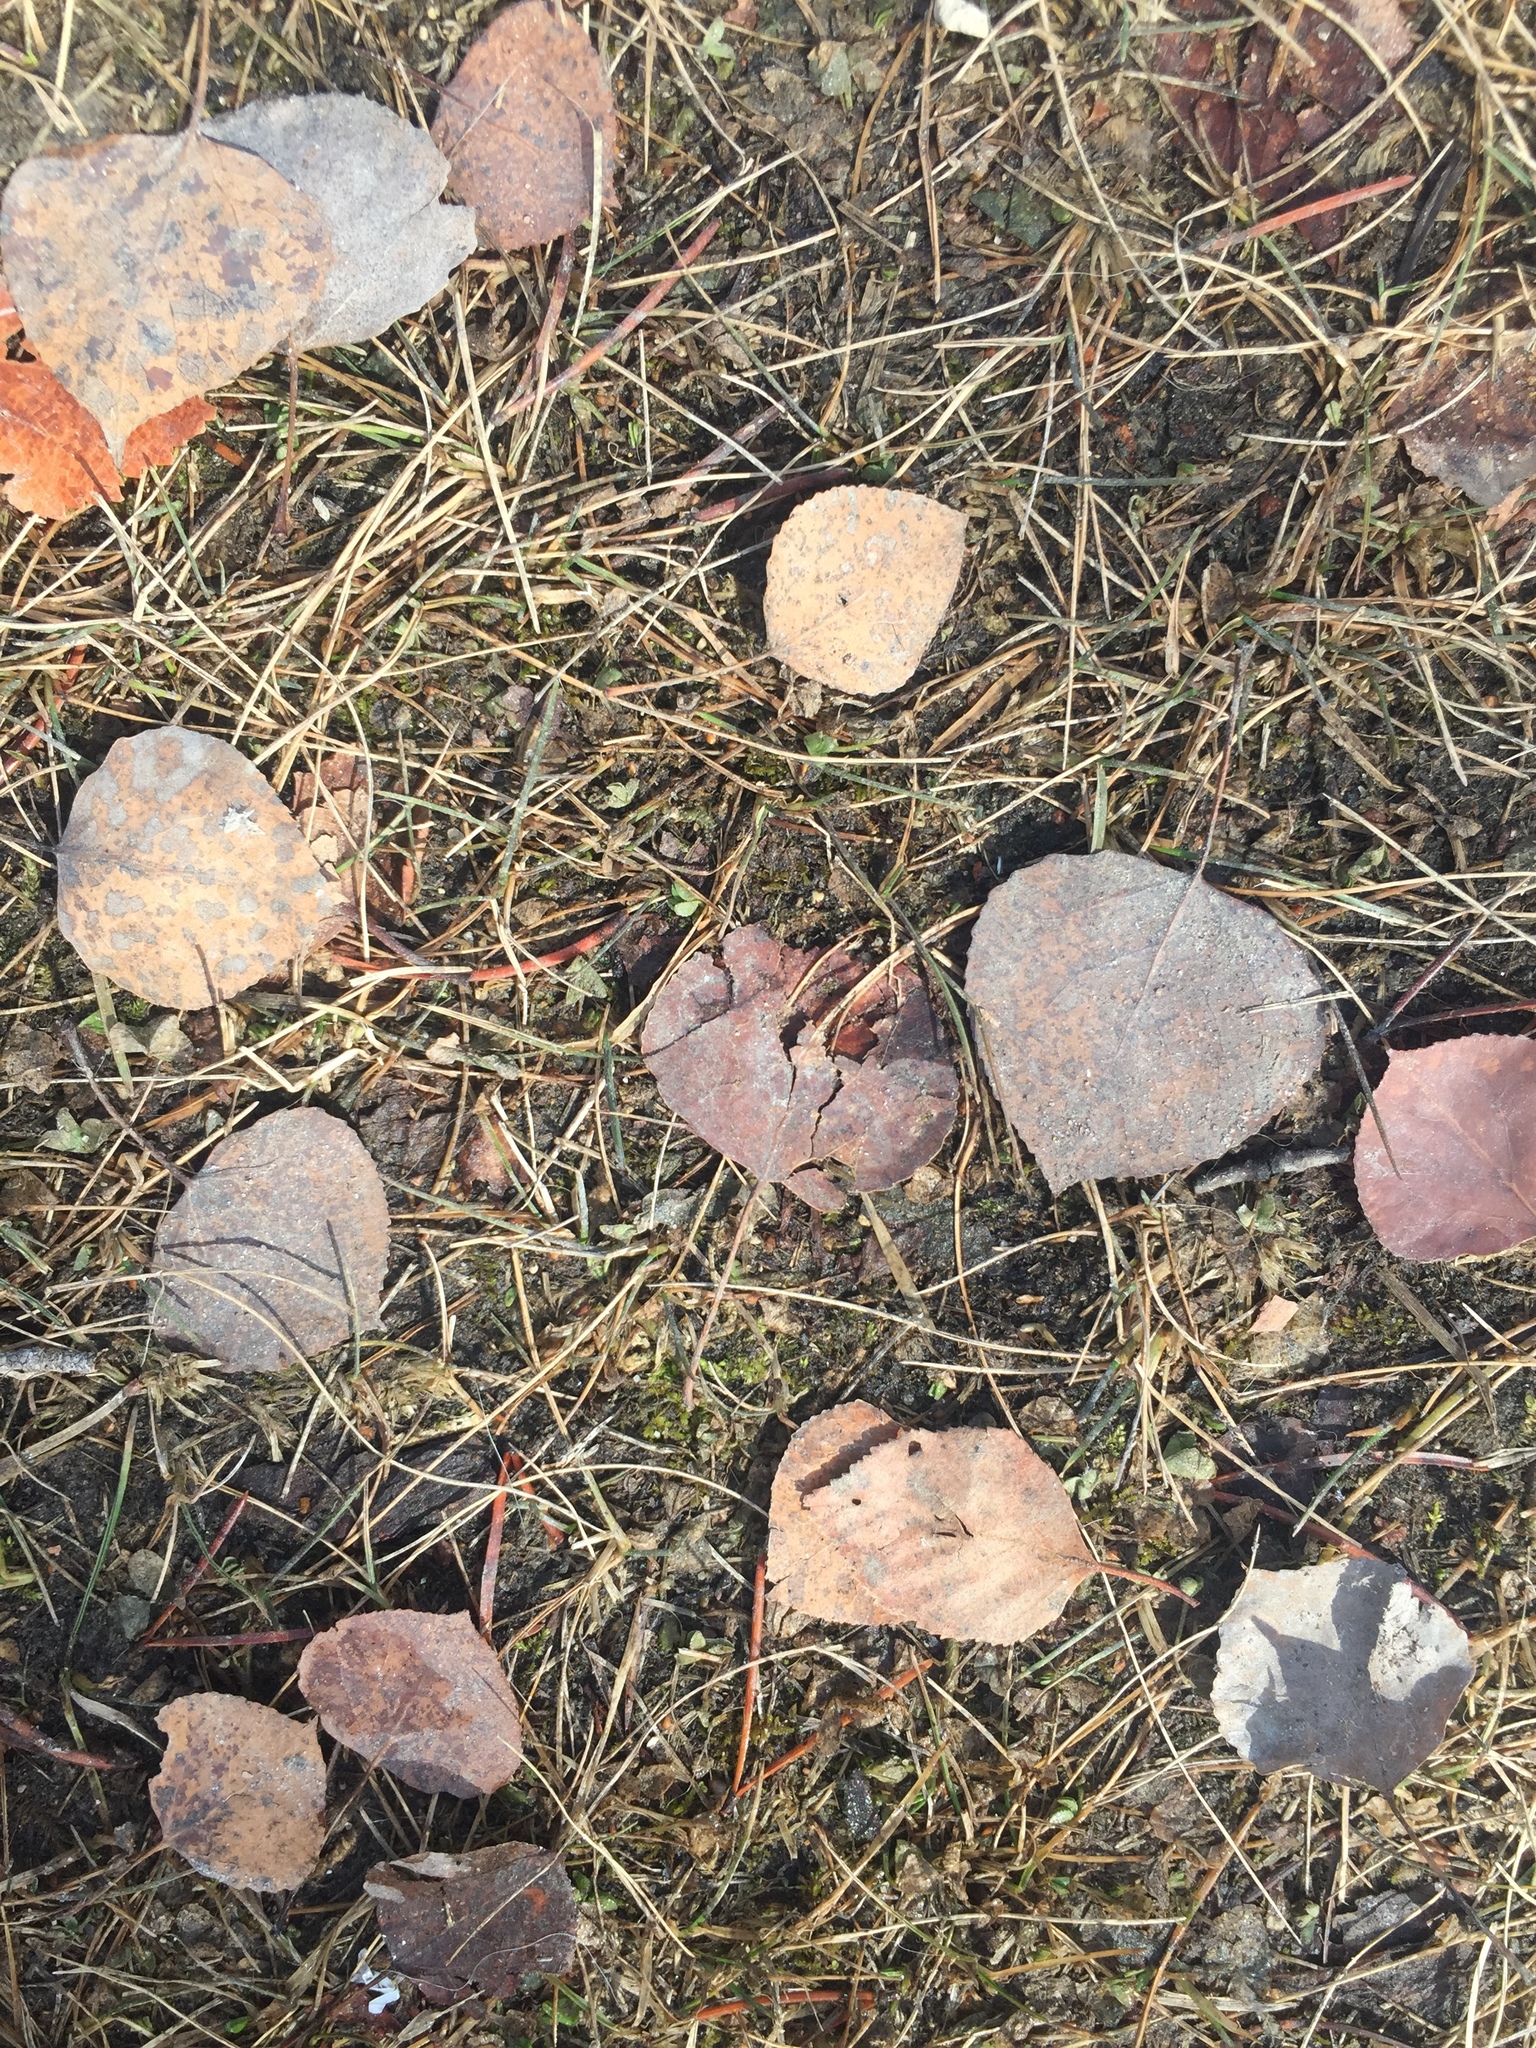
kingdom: Plantae
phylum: Tracheophyta
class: Magnoliopsida
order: Malpighiales
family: Salicaceae
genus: Populus
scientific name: Populus tremuloides
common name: Quaking aspen
